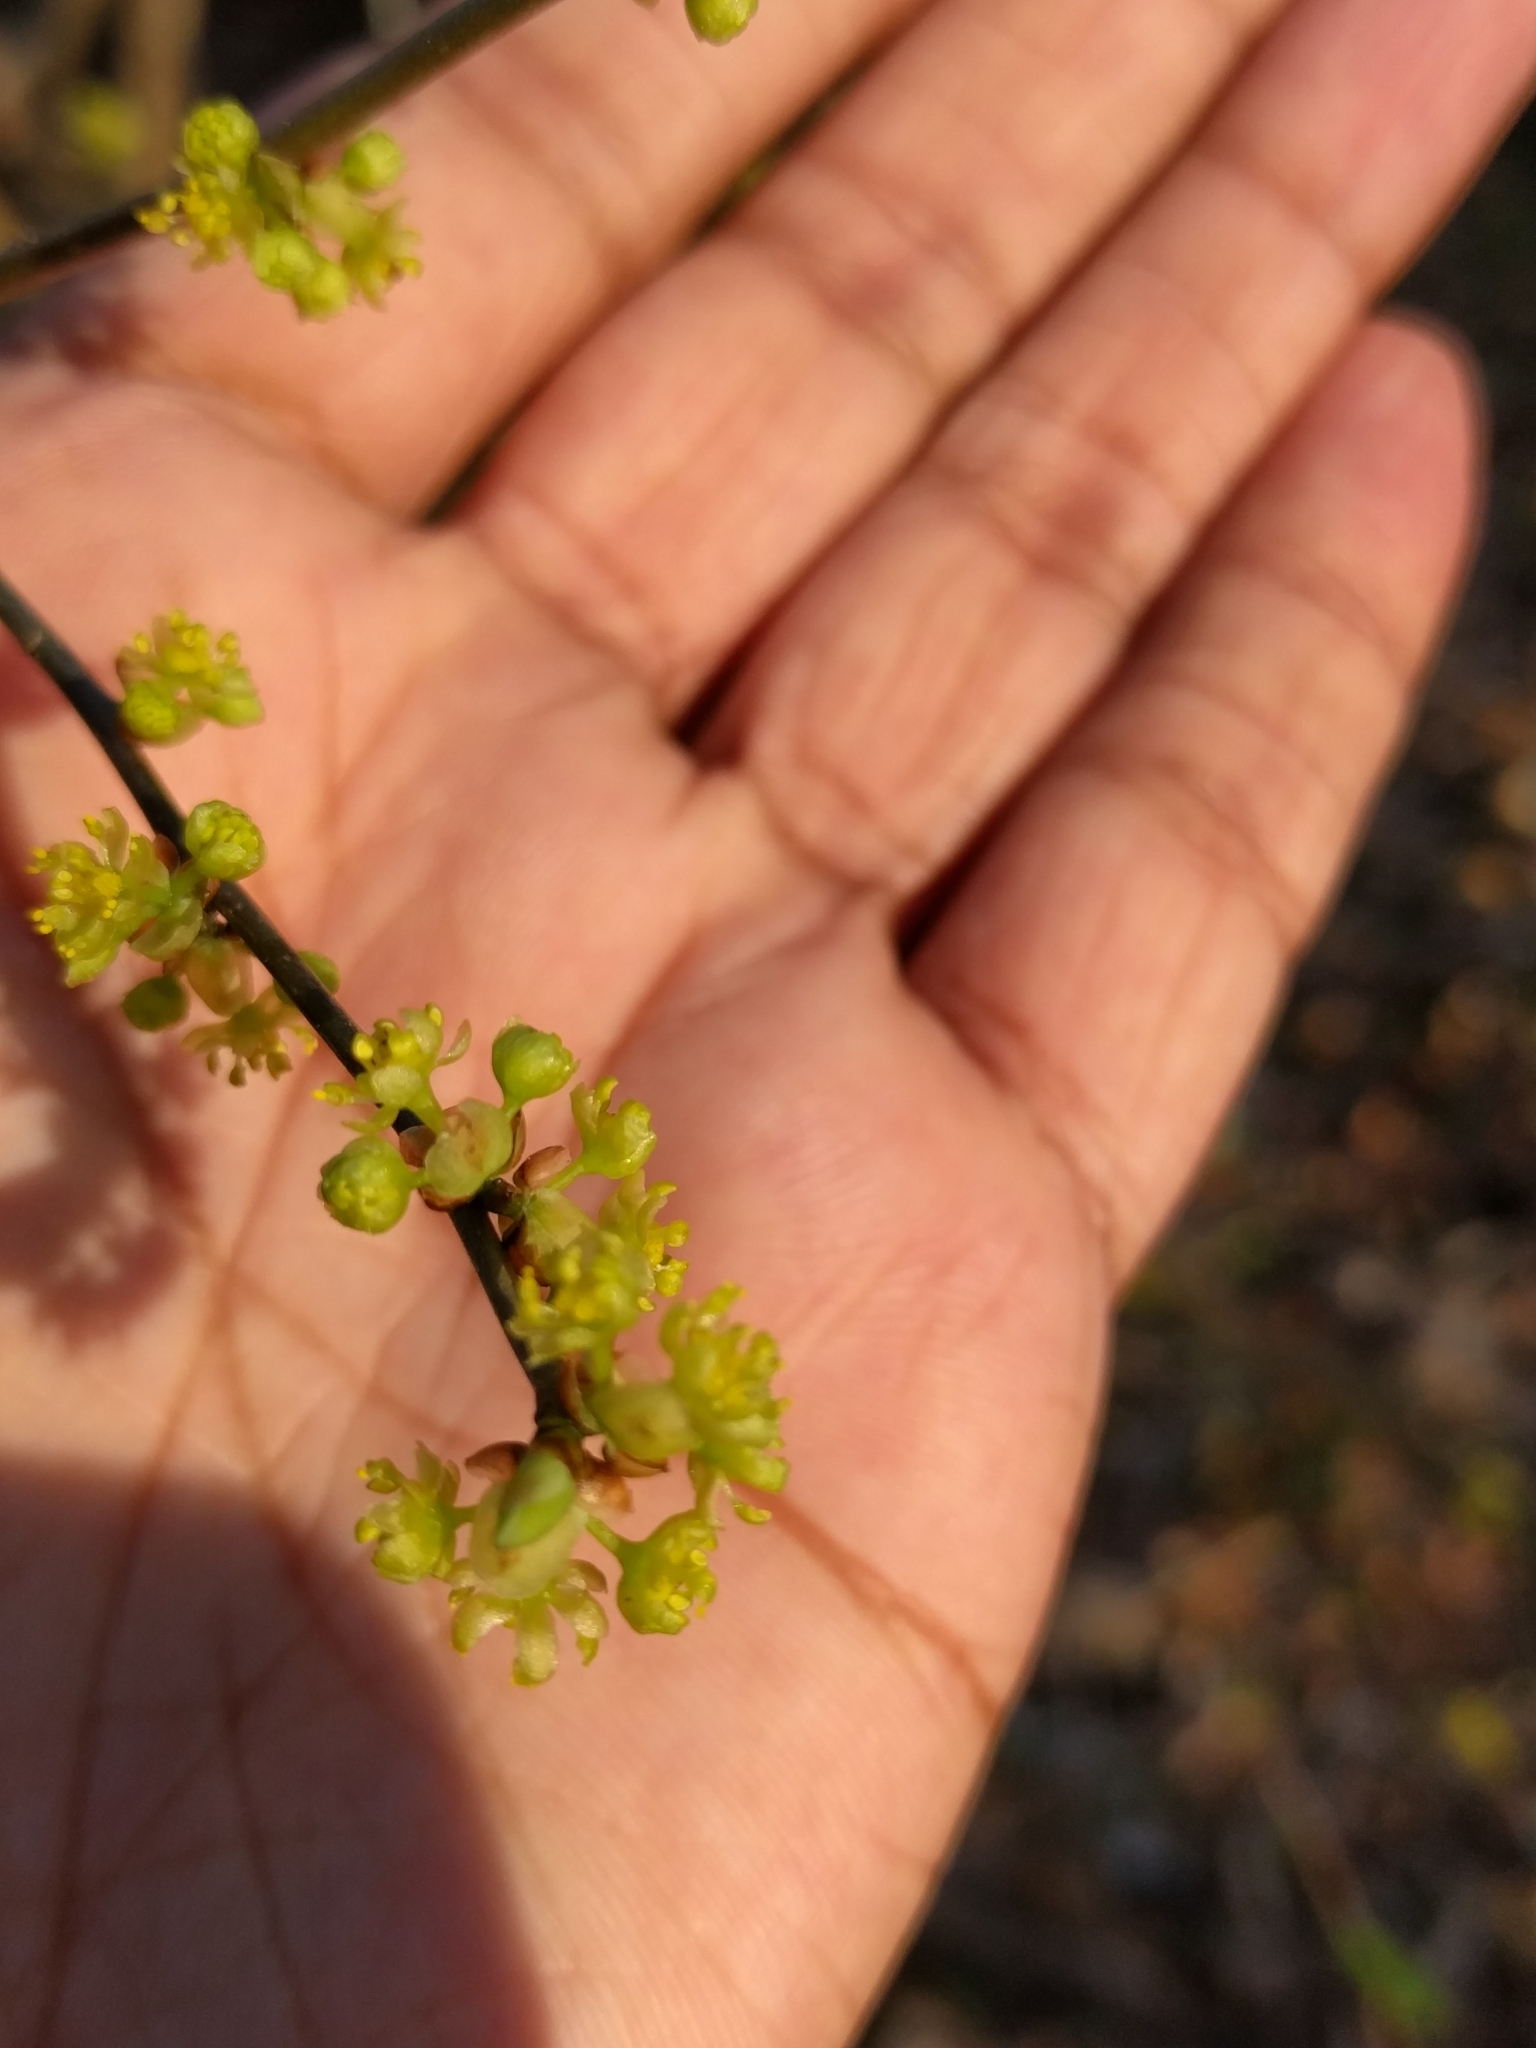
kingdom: Plantae
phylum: Tracheophyta
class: Magnoliopsida
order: Laurales
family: Lauraceae
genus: Lindera
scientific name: Lindera benzoin
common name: Spicebush
